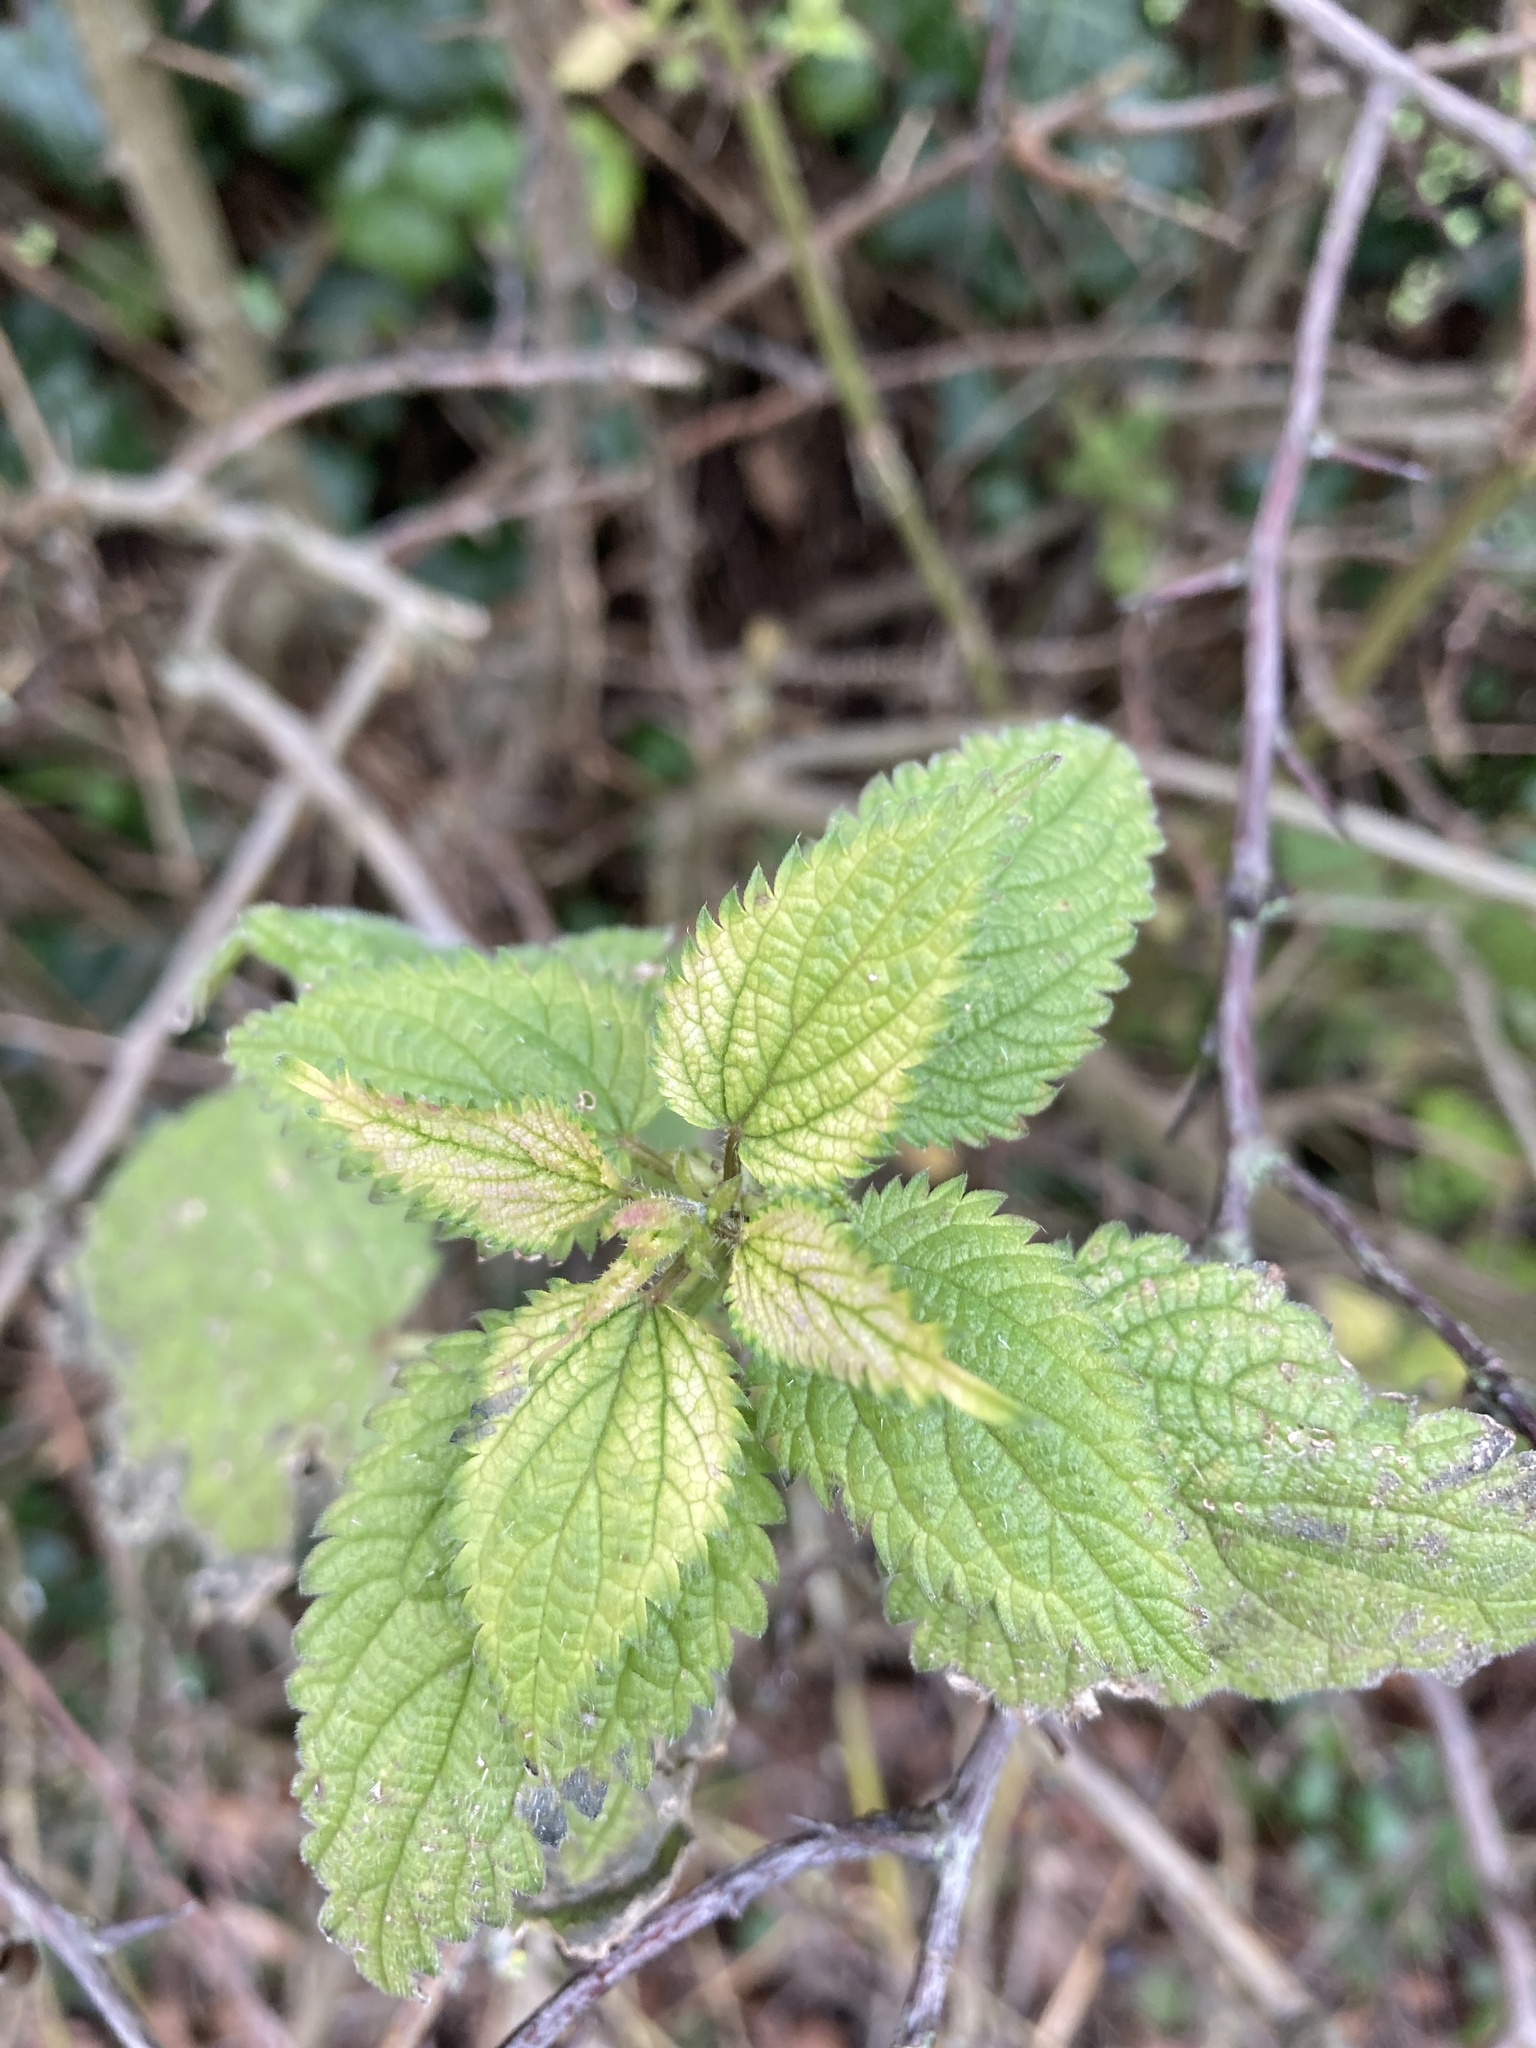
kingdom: Plantae
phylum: Tracheophyta
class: Magnoliopsida
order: Rosales
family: Urticaceae
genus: Urtica
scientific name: Urtica dioica
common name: Common nettle
